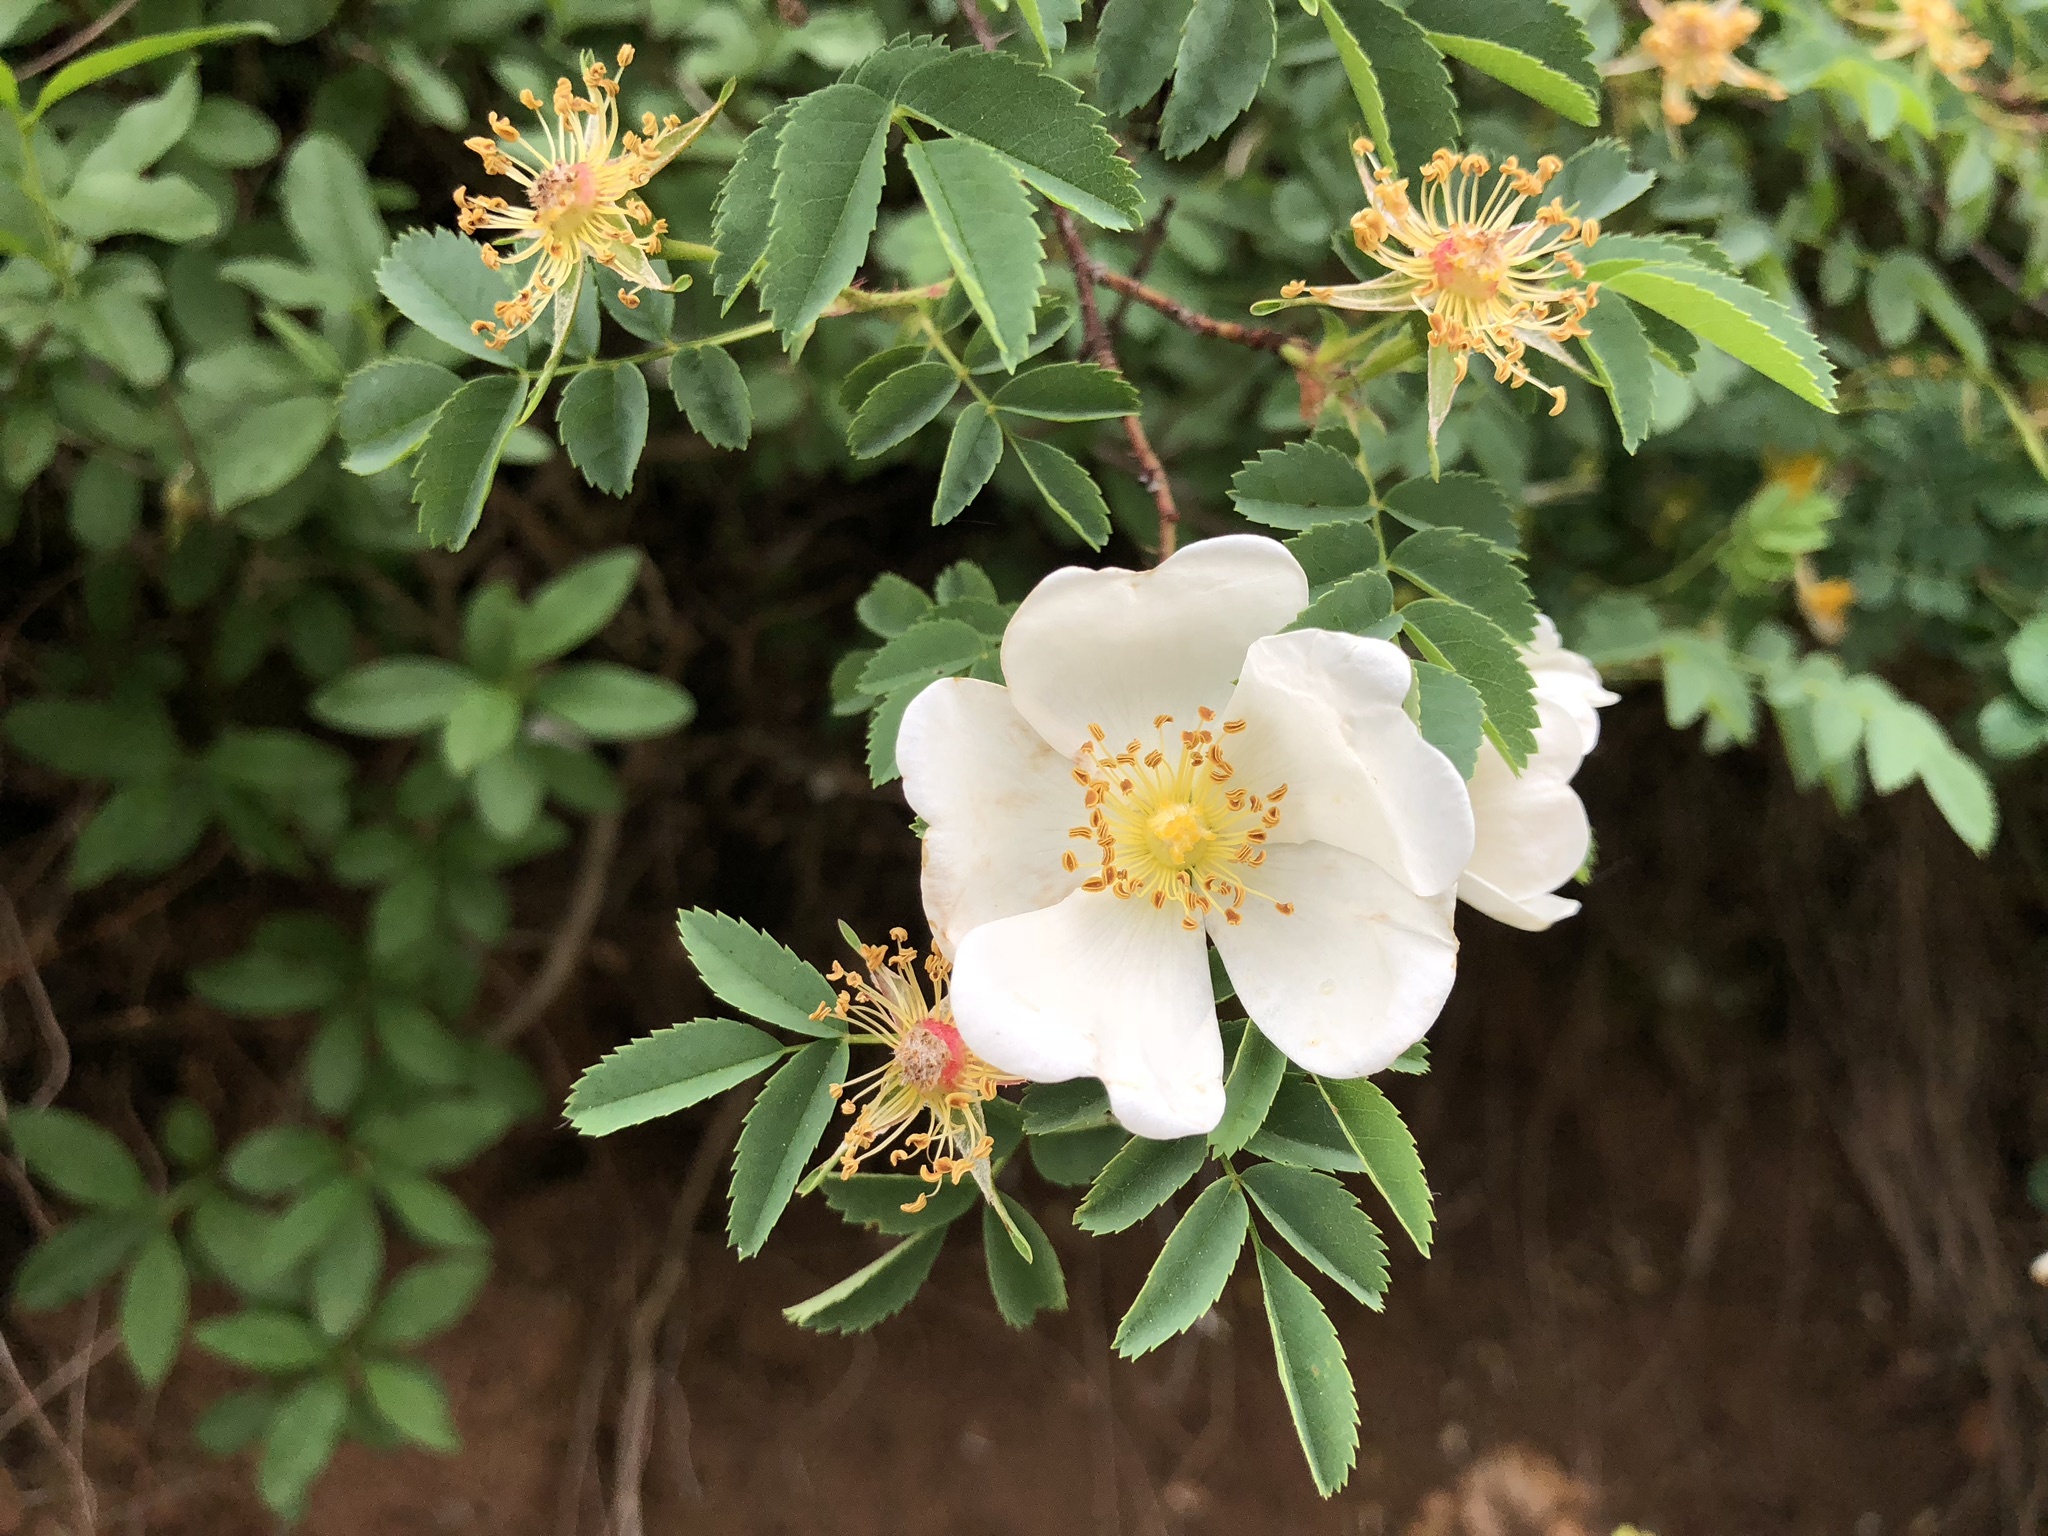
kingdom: Plantae
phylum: Tracheophyta
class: Magnoliopsida
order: Rosales
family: Rosaceae
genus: Rosa
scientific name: Rosa spinosissima
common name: Burnet rose
